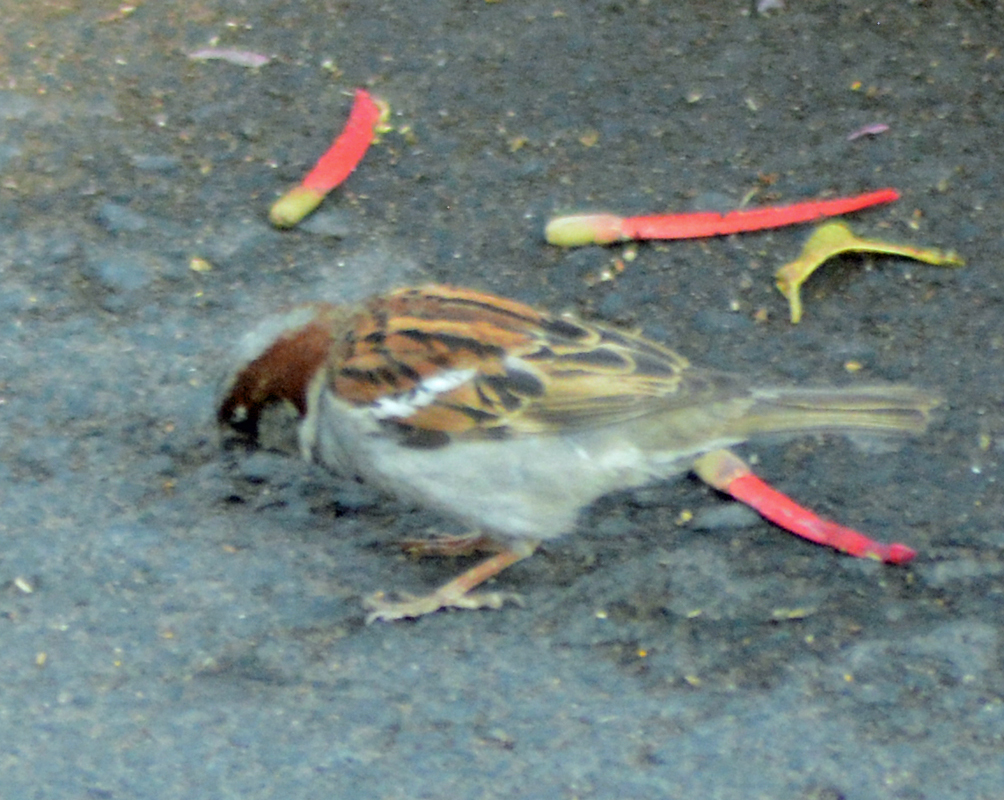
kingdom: Animalia
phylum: Chordata
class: Aves
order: Passeriformes
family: Passeridae
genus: Passer
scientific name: Passer domesticus
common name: House sparrow
